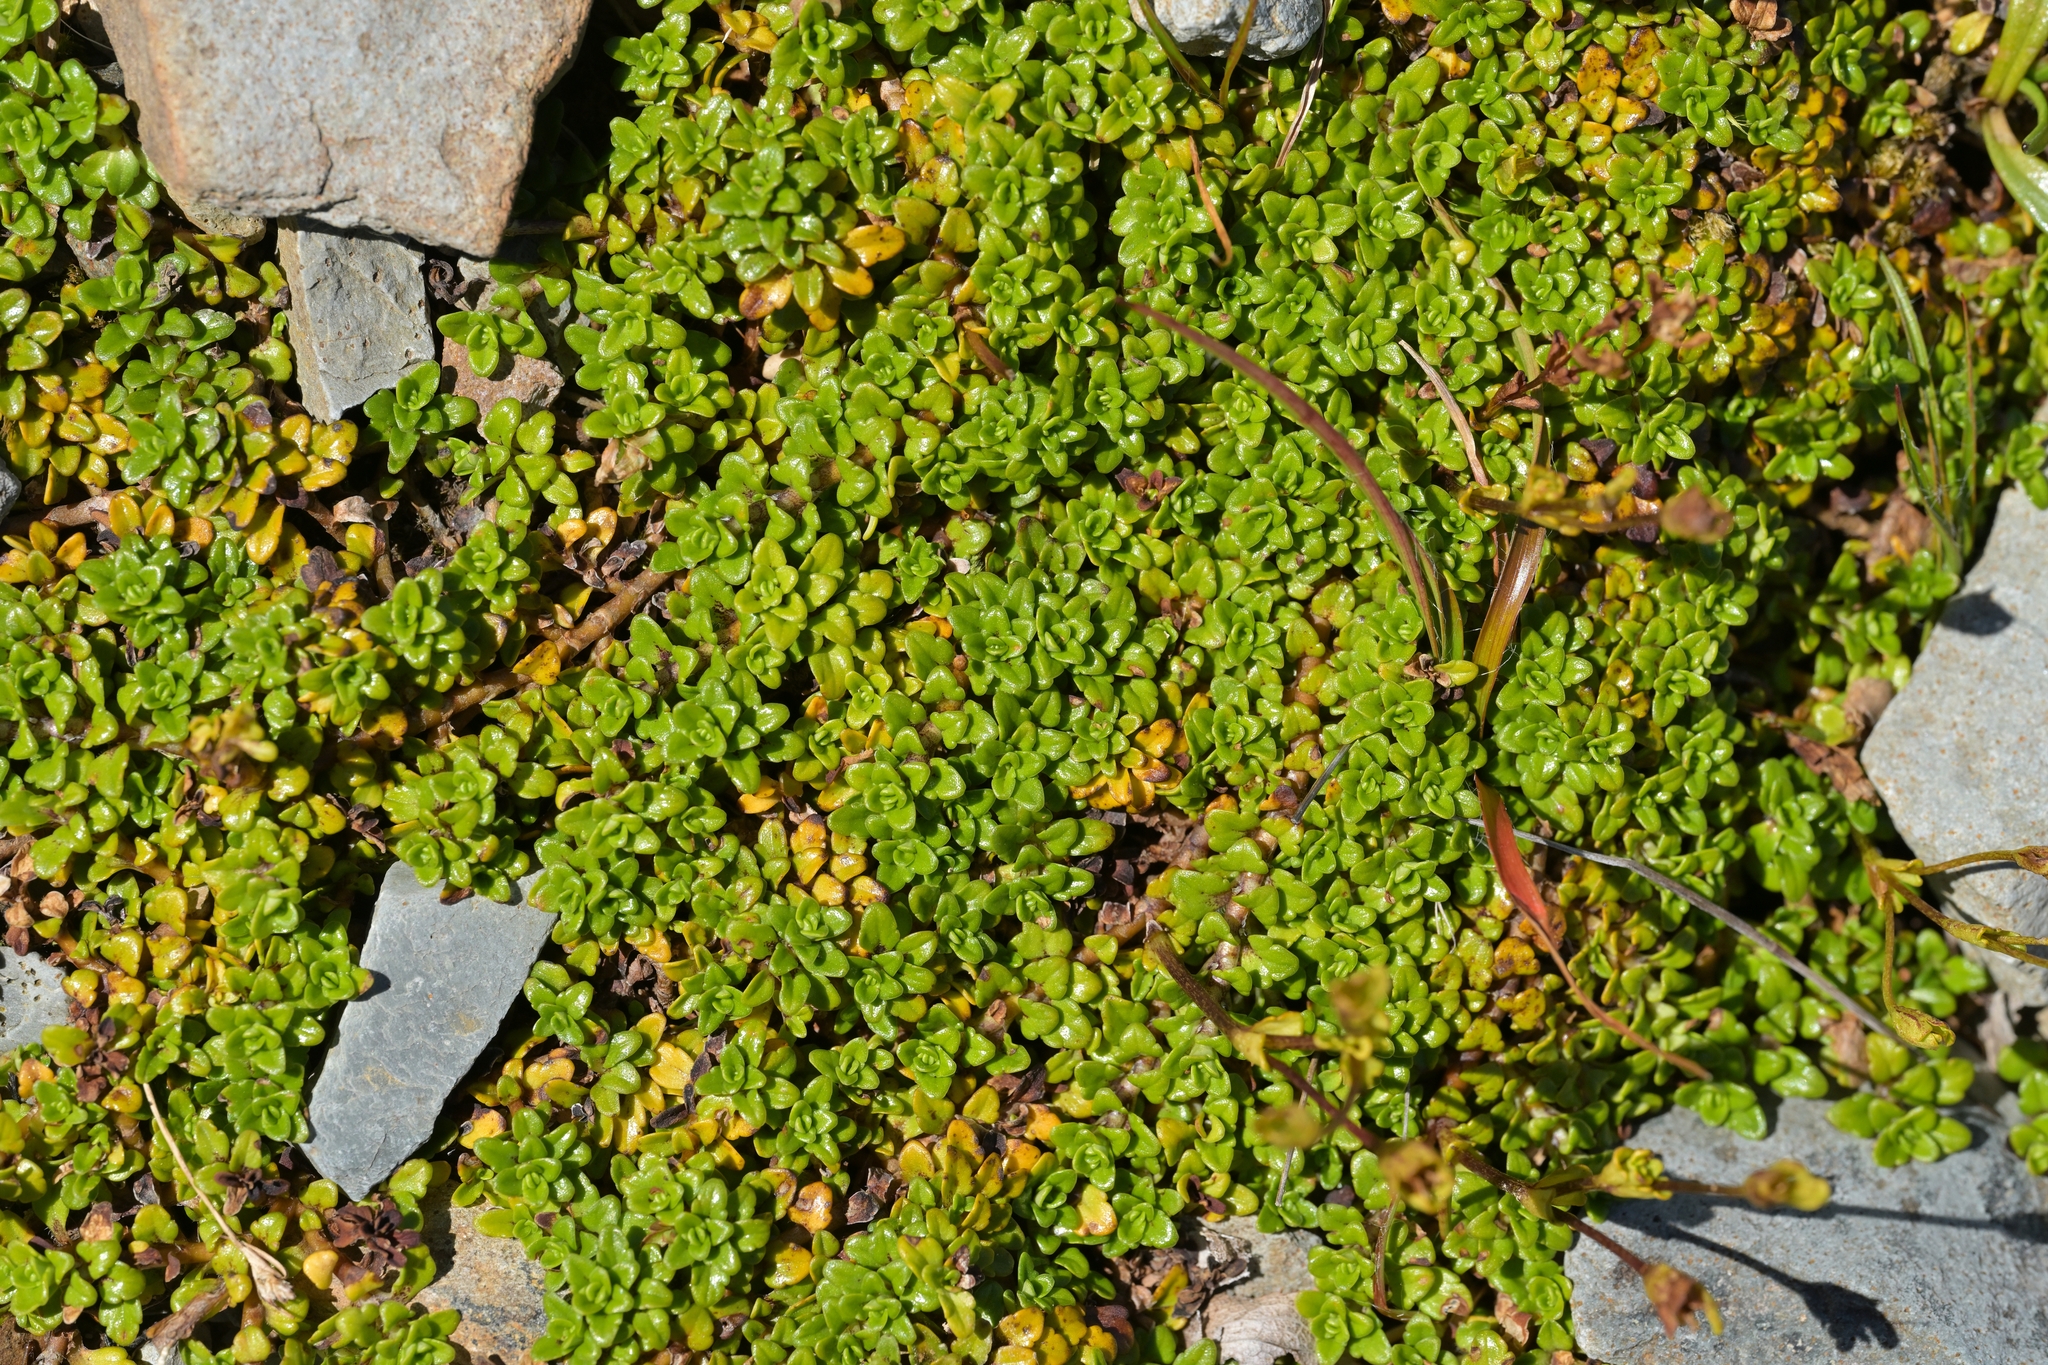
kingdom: Plantae
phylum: Tracheophyta
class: Magnoliopsida
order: Lamiales
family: Plantaginaceae
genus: Ourisia
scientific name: Ourisia caespitosa
